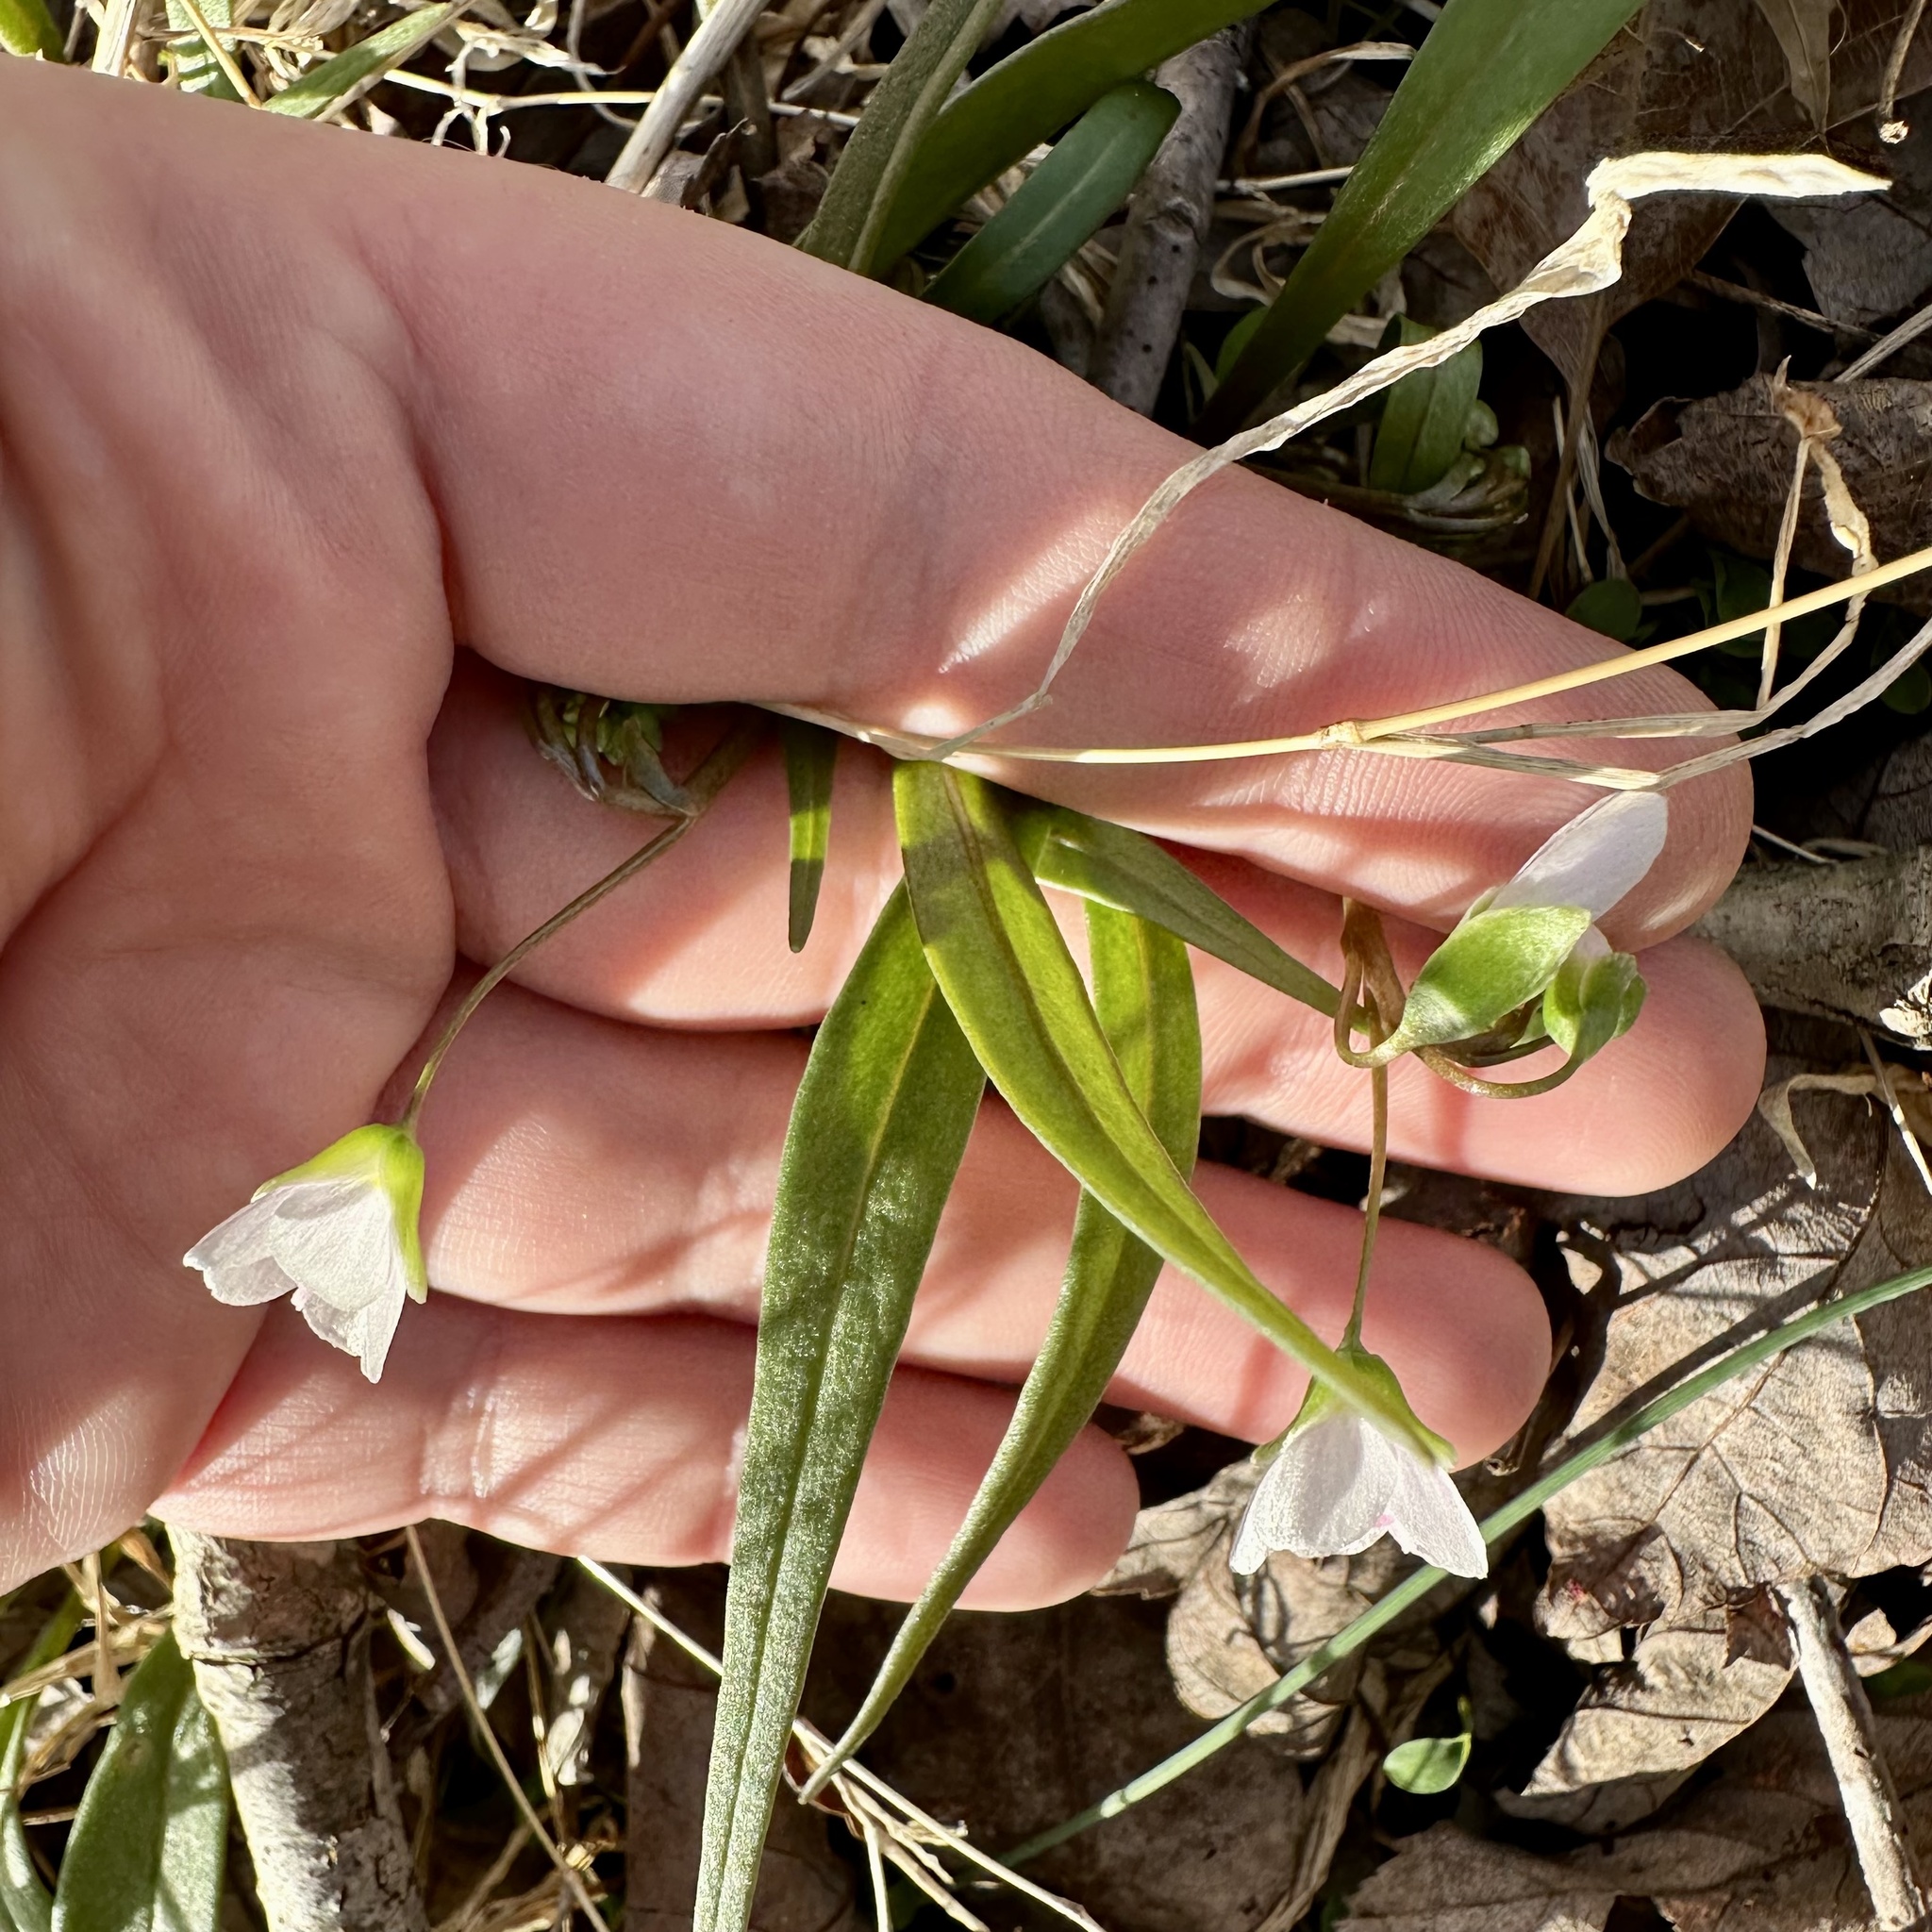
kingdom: Plantae
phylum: Tracheophyta
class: Magnoliopsida
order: Caryophyllales
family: Montiaceae
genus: Claytonia
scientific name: Claytonia virginica
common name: Virginia springbeauty
